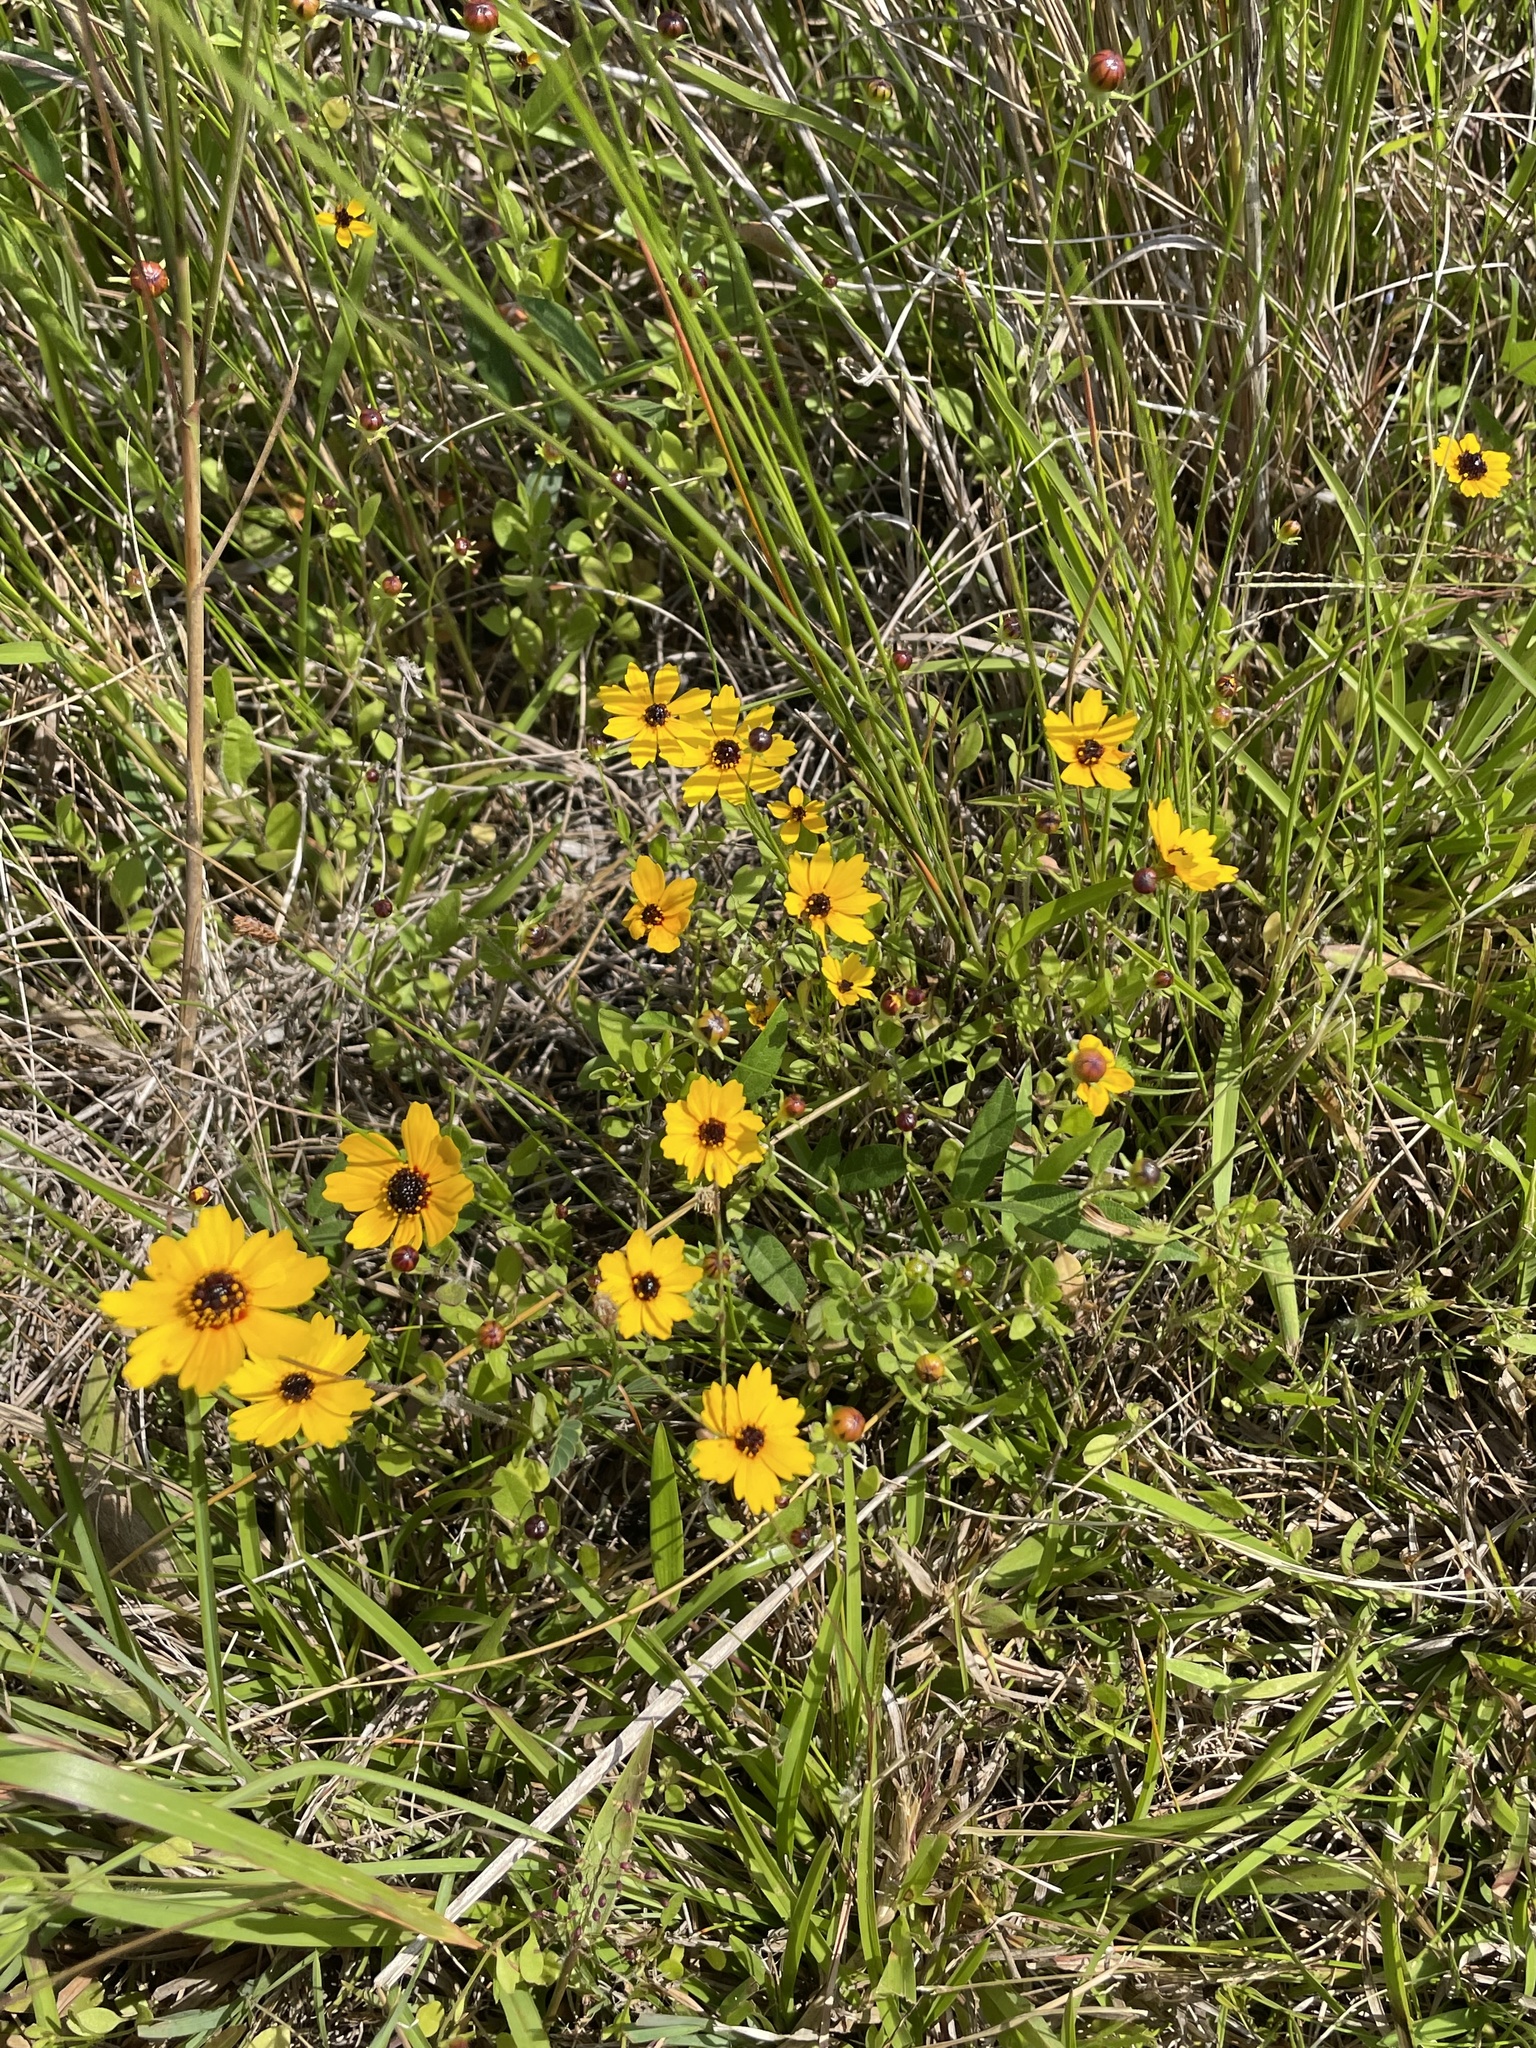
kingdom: Plantae
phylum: Tracheophyta
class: Magnoliopsida
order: Asterales
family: Asteraceae
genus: Coreopsis
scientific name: Coreopsis basalis
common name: Golden-mane coreopsis
